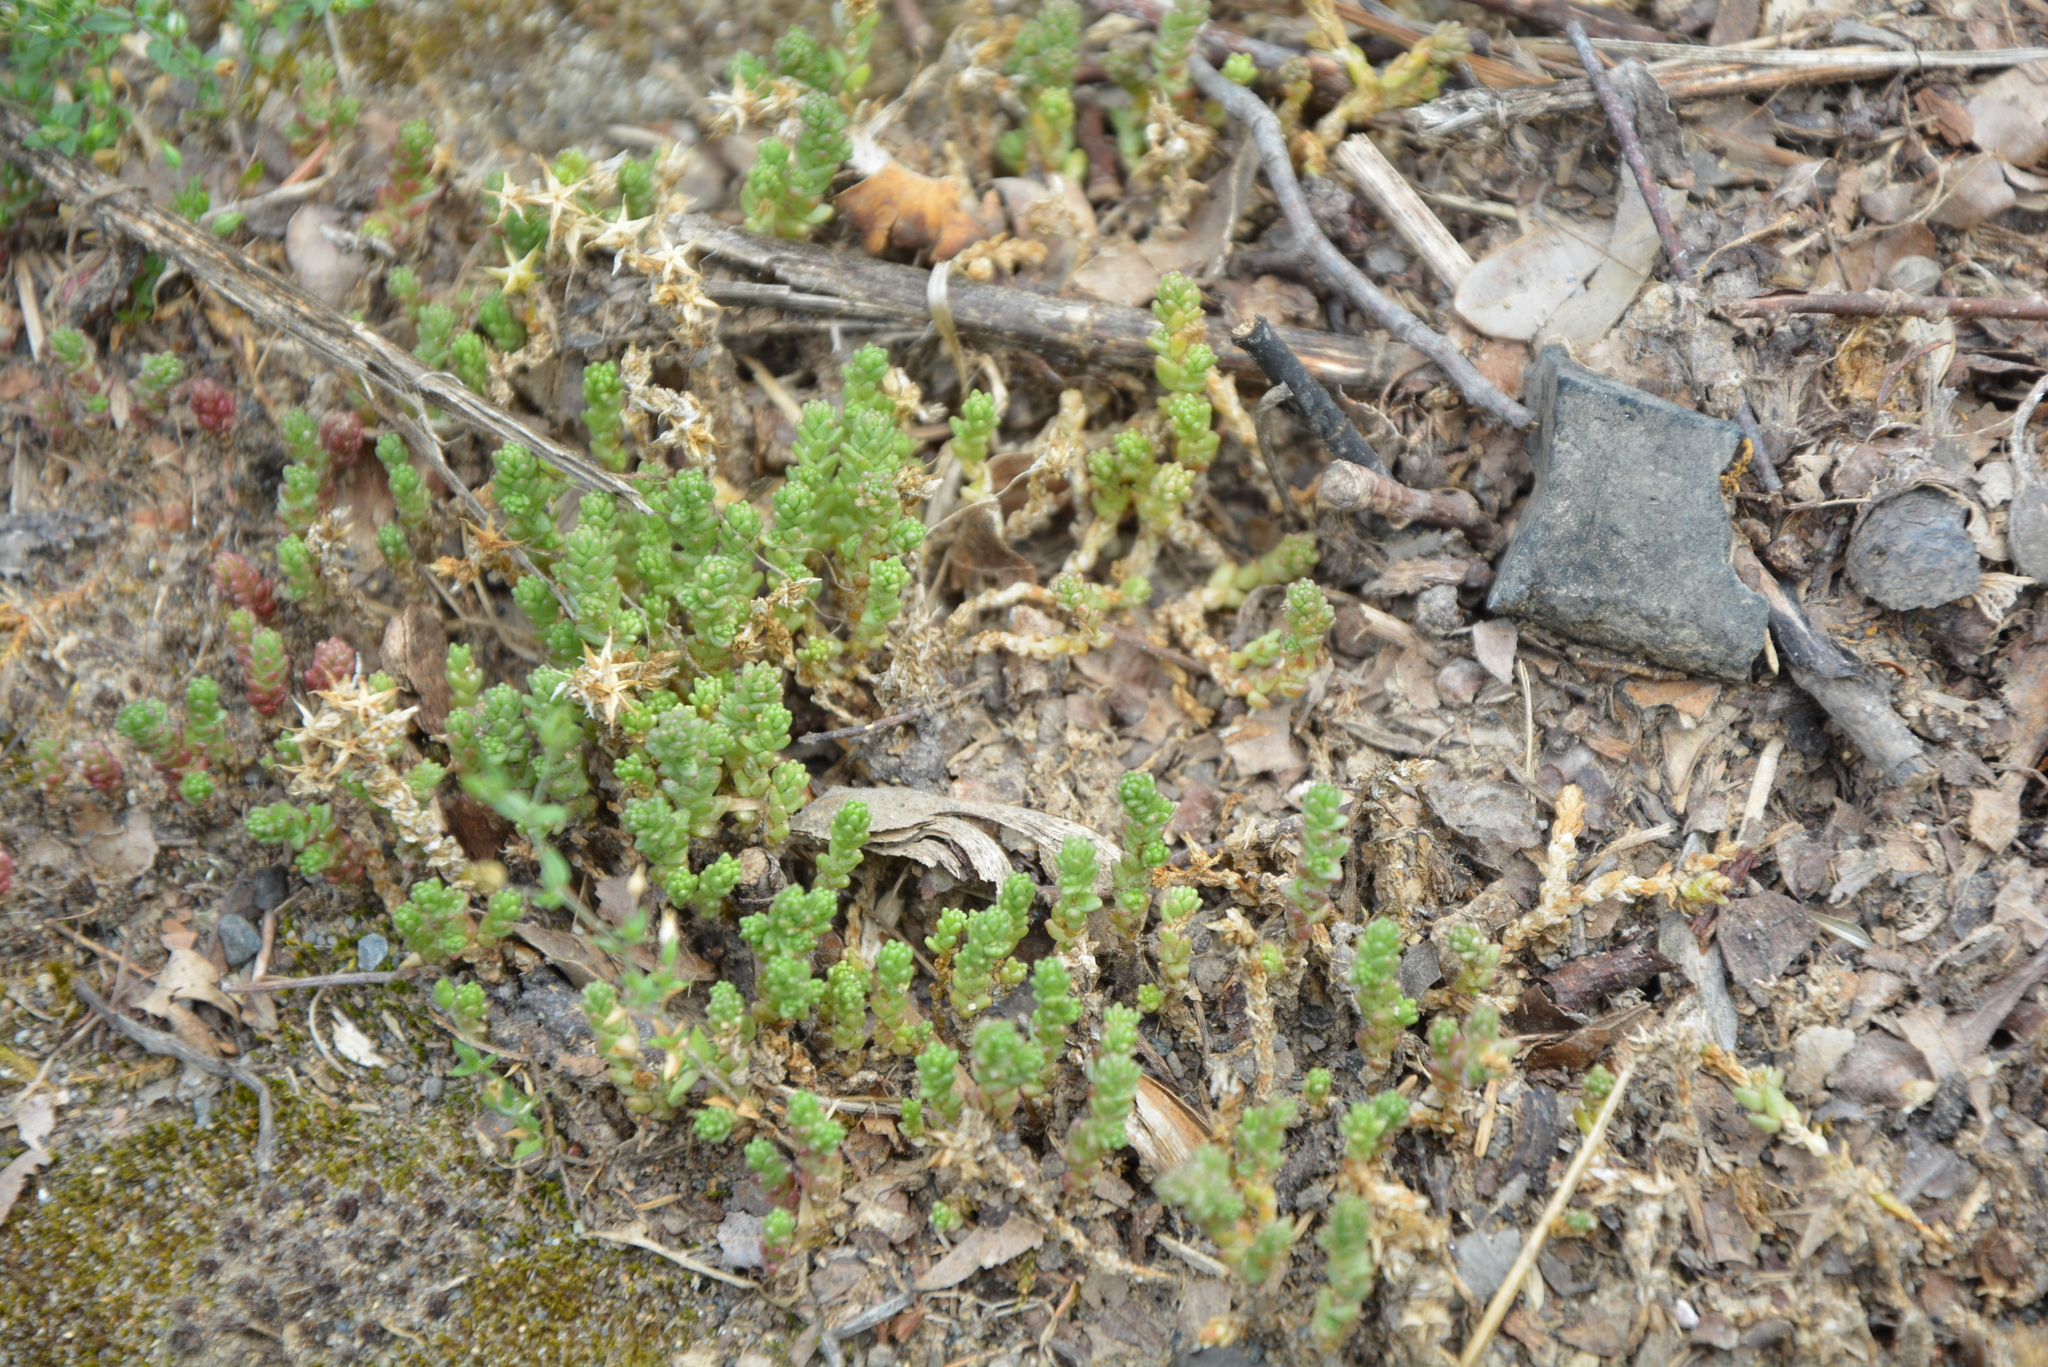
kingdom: Plantae
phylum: Tracheophyta
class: Magnoliopsida
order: Saxifragales
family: Crassulaceae
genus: Sedum
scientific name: Sedum acre
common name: Biting stonecrop
